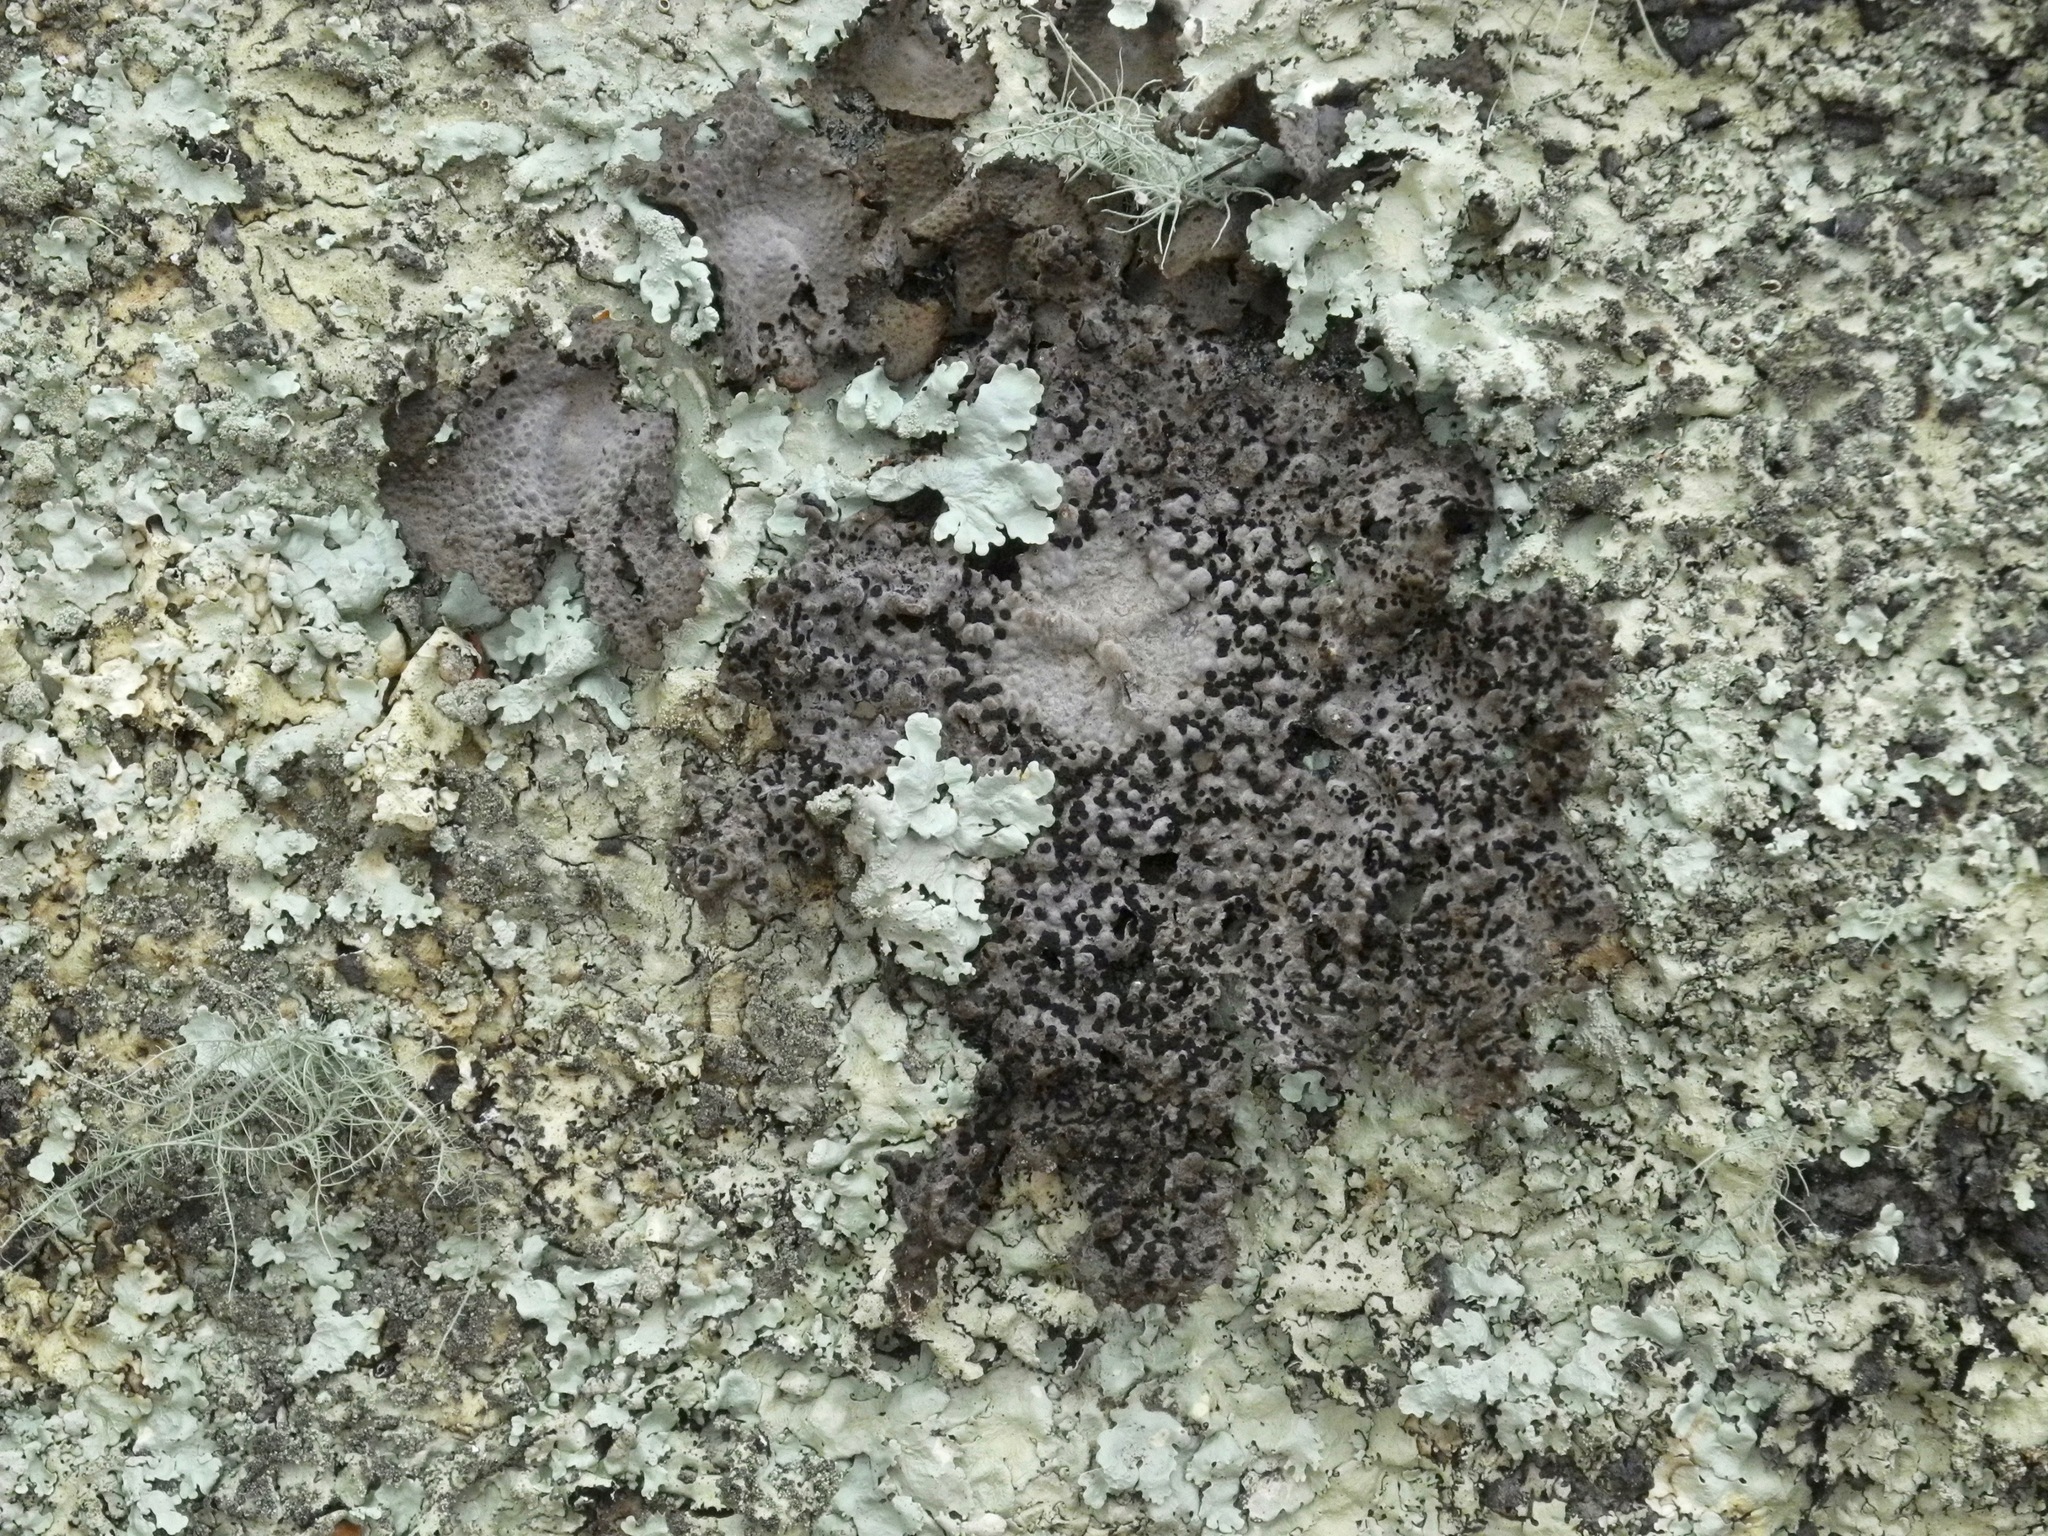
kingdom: Fungi
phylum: Ascomycota
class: Lecanoromycetes
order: Umbilicariales
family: Umbilicariaceae
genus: Lasallia
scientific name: Lasallia papulosa
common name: Common toadskin lichen
